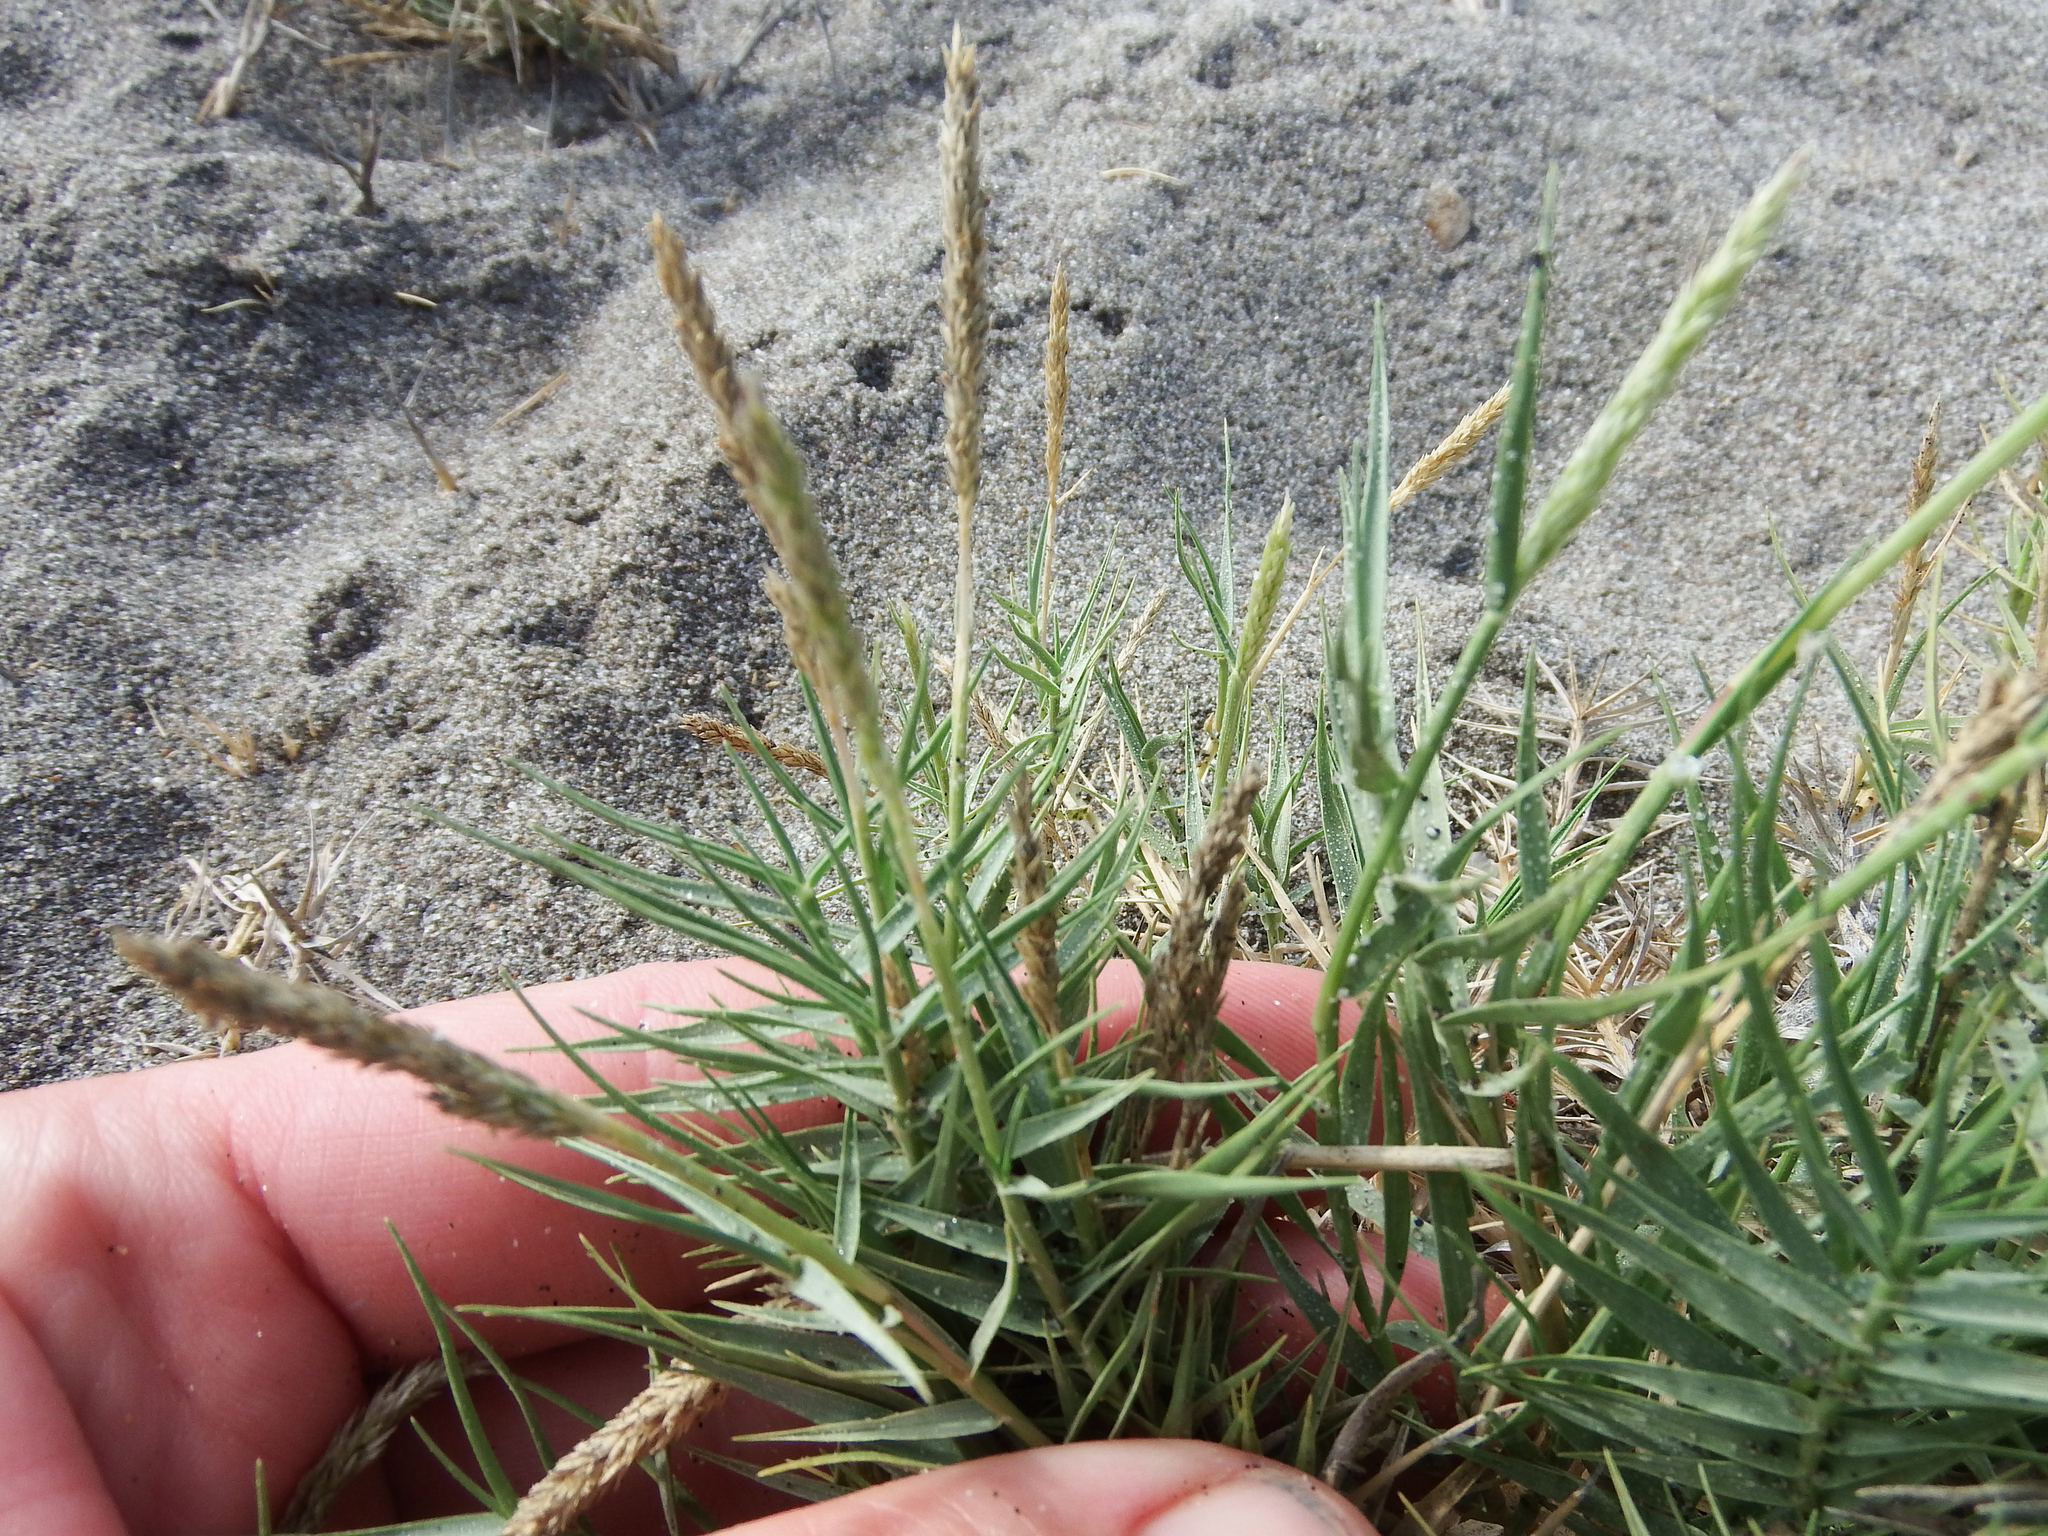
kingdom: Plantae
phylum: Tracheophyta
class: Liliopsida
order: Poales
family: Poaceae
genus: Distichlis
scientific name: Distichlis spicata
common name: Saltgrass
